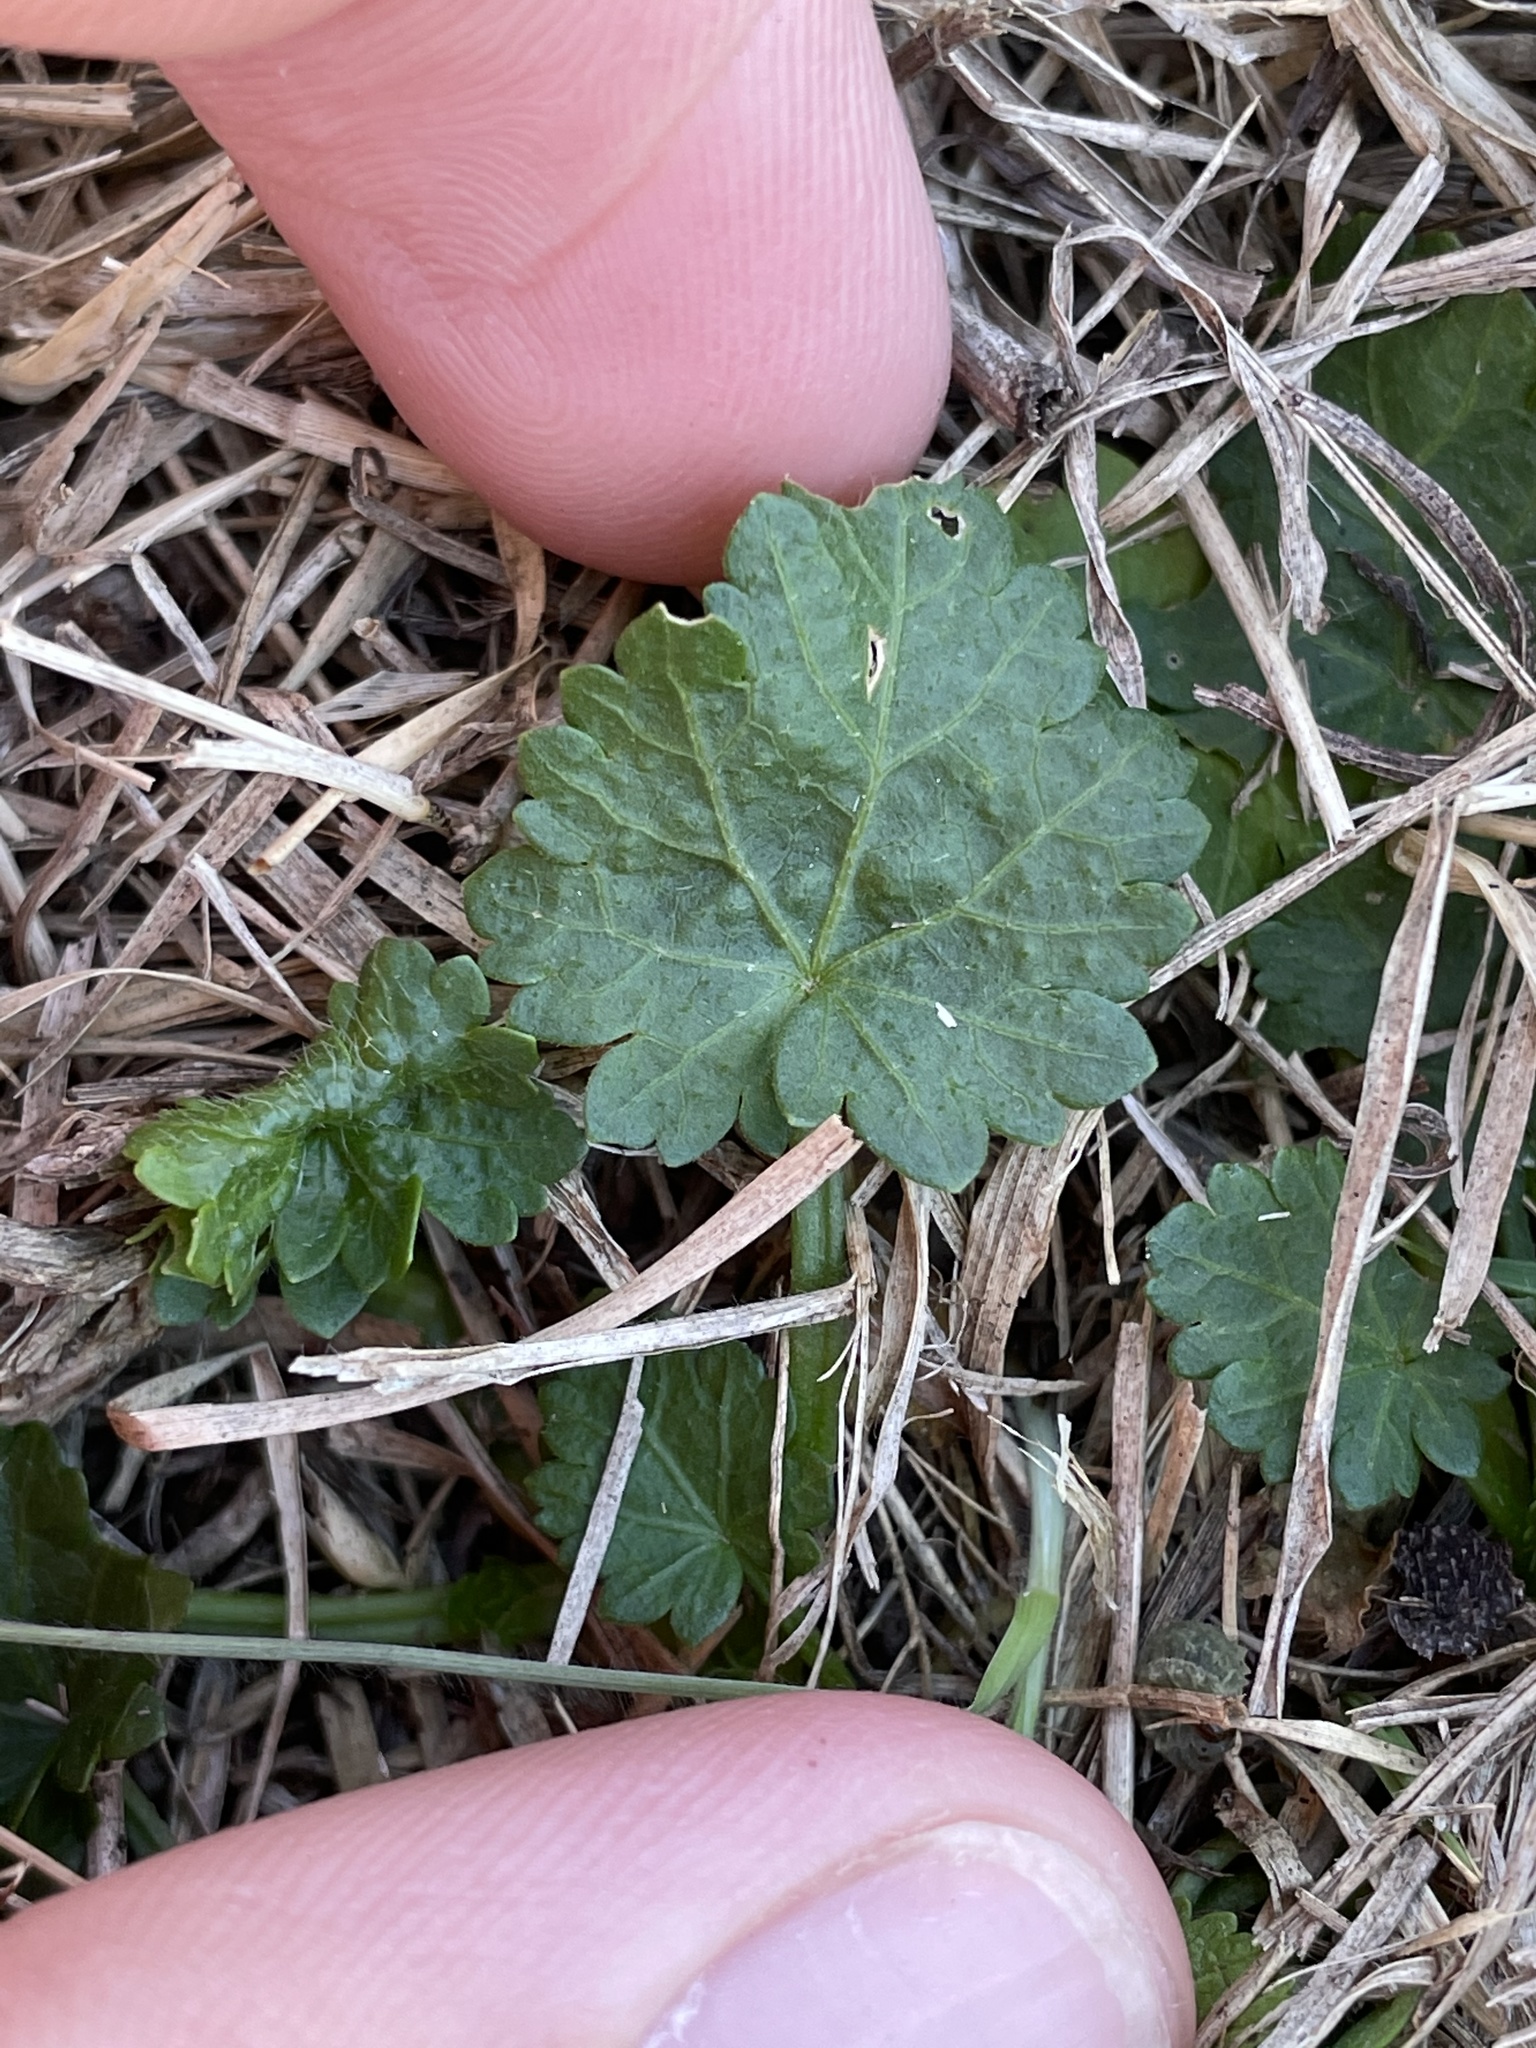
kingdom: Plantae
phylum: Tracheophyta
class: Magnoliopsida
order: Malvales
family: Malvaceae
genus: Modiola
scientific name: Modiola caroliniana
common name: Carolina bristlemallow
